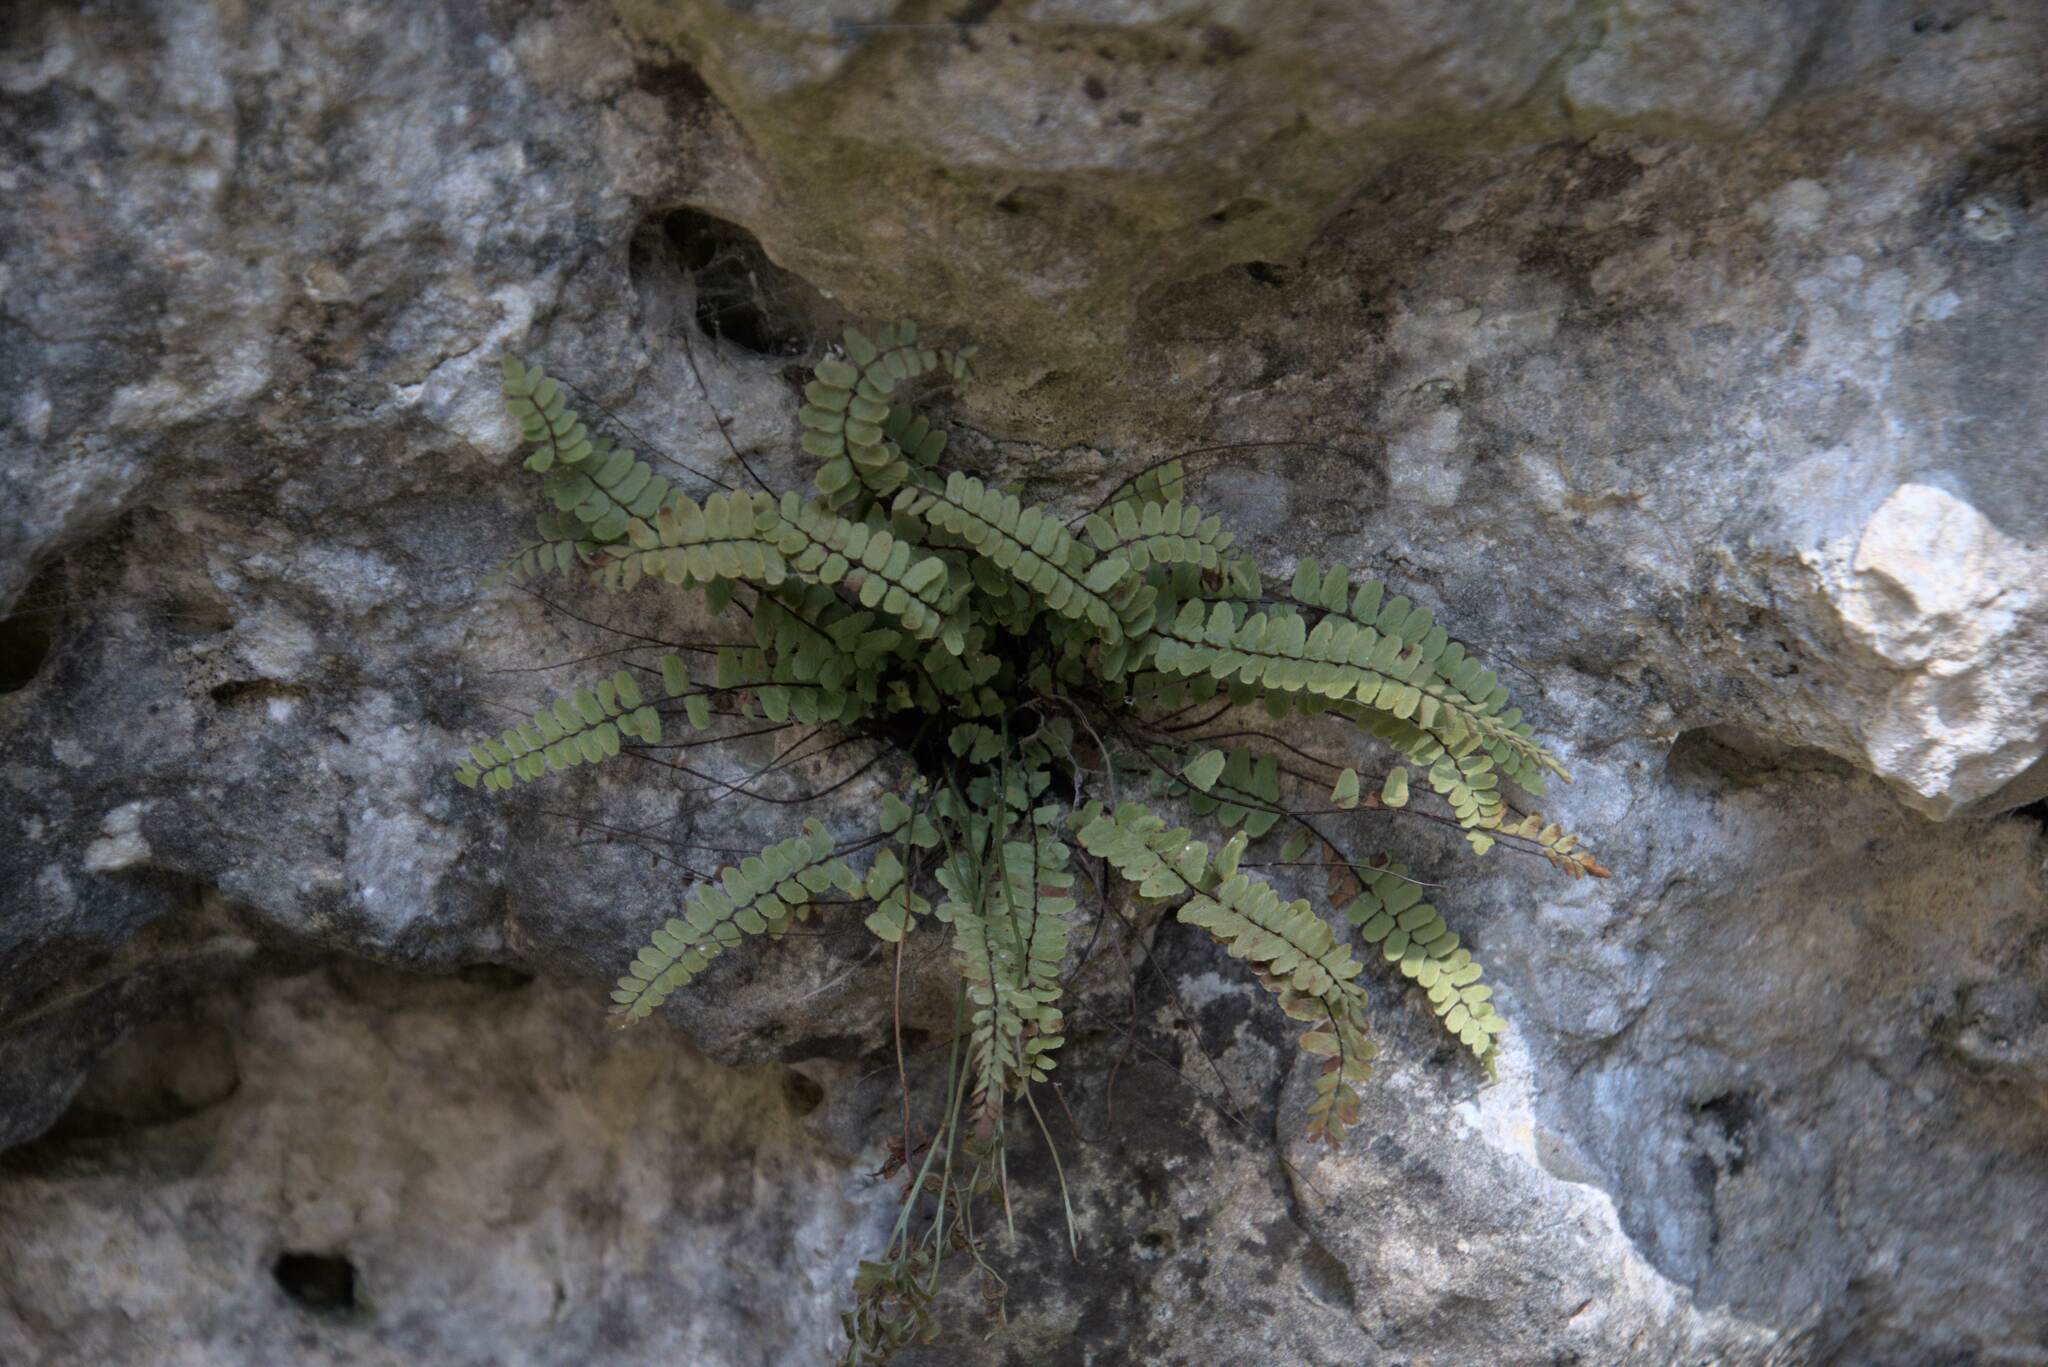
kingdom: Plantae
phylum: Tracheophyta
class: Polypodiopsida
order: Polypodiales
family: Aspleniaceae
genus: Asplenium
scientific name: Asplenium trichomanes
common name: Maidenhair spleenwort
